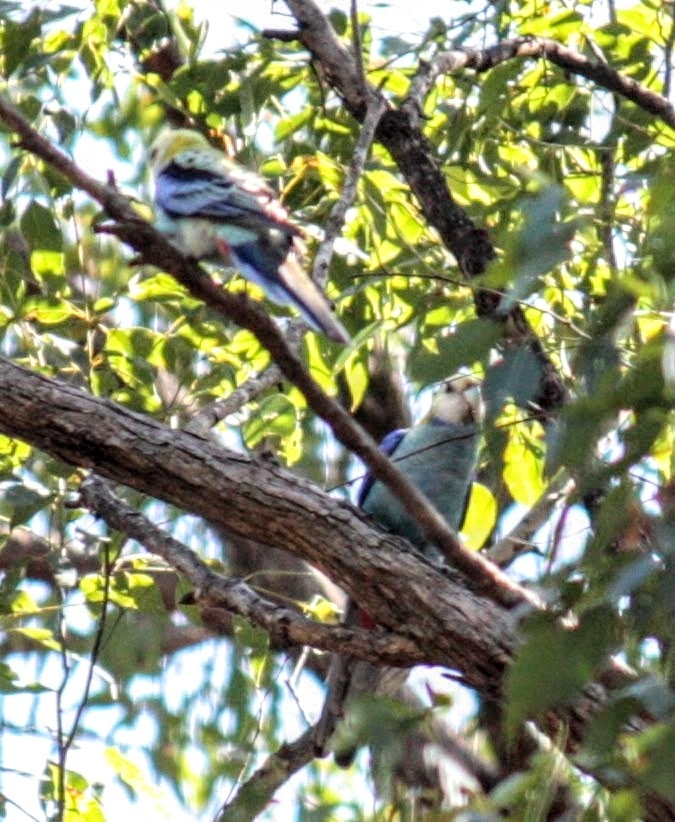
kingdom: Animalia
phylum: Chordata
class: Aves
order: Psittaciformes
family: Psittacidae
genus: Platycercus
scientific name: Platycercus adscitus
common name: Pale-headed rosella
